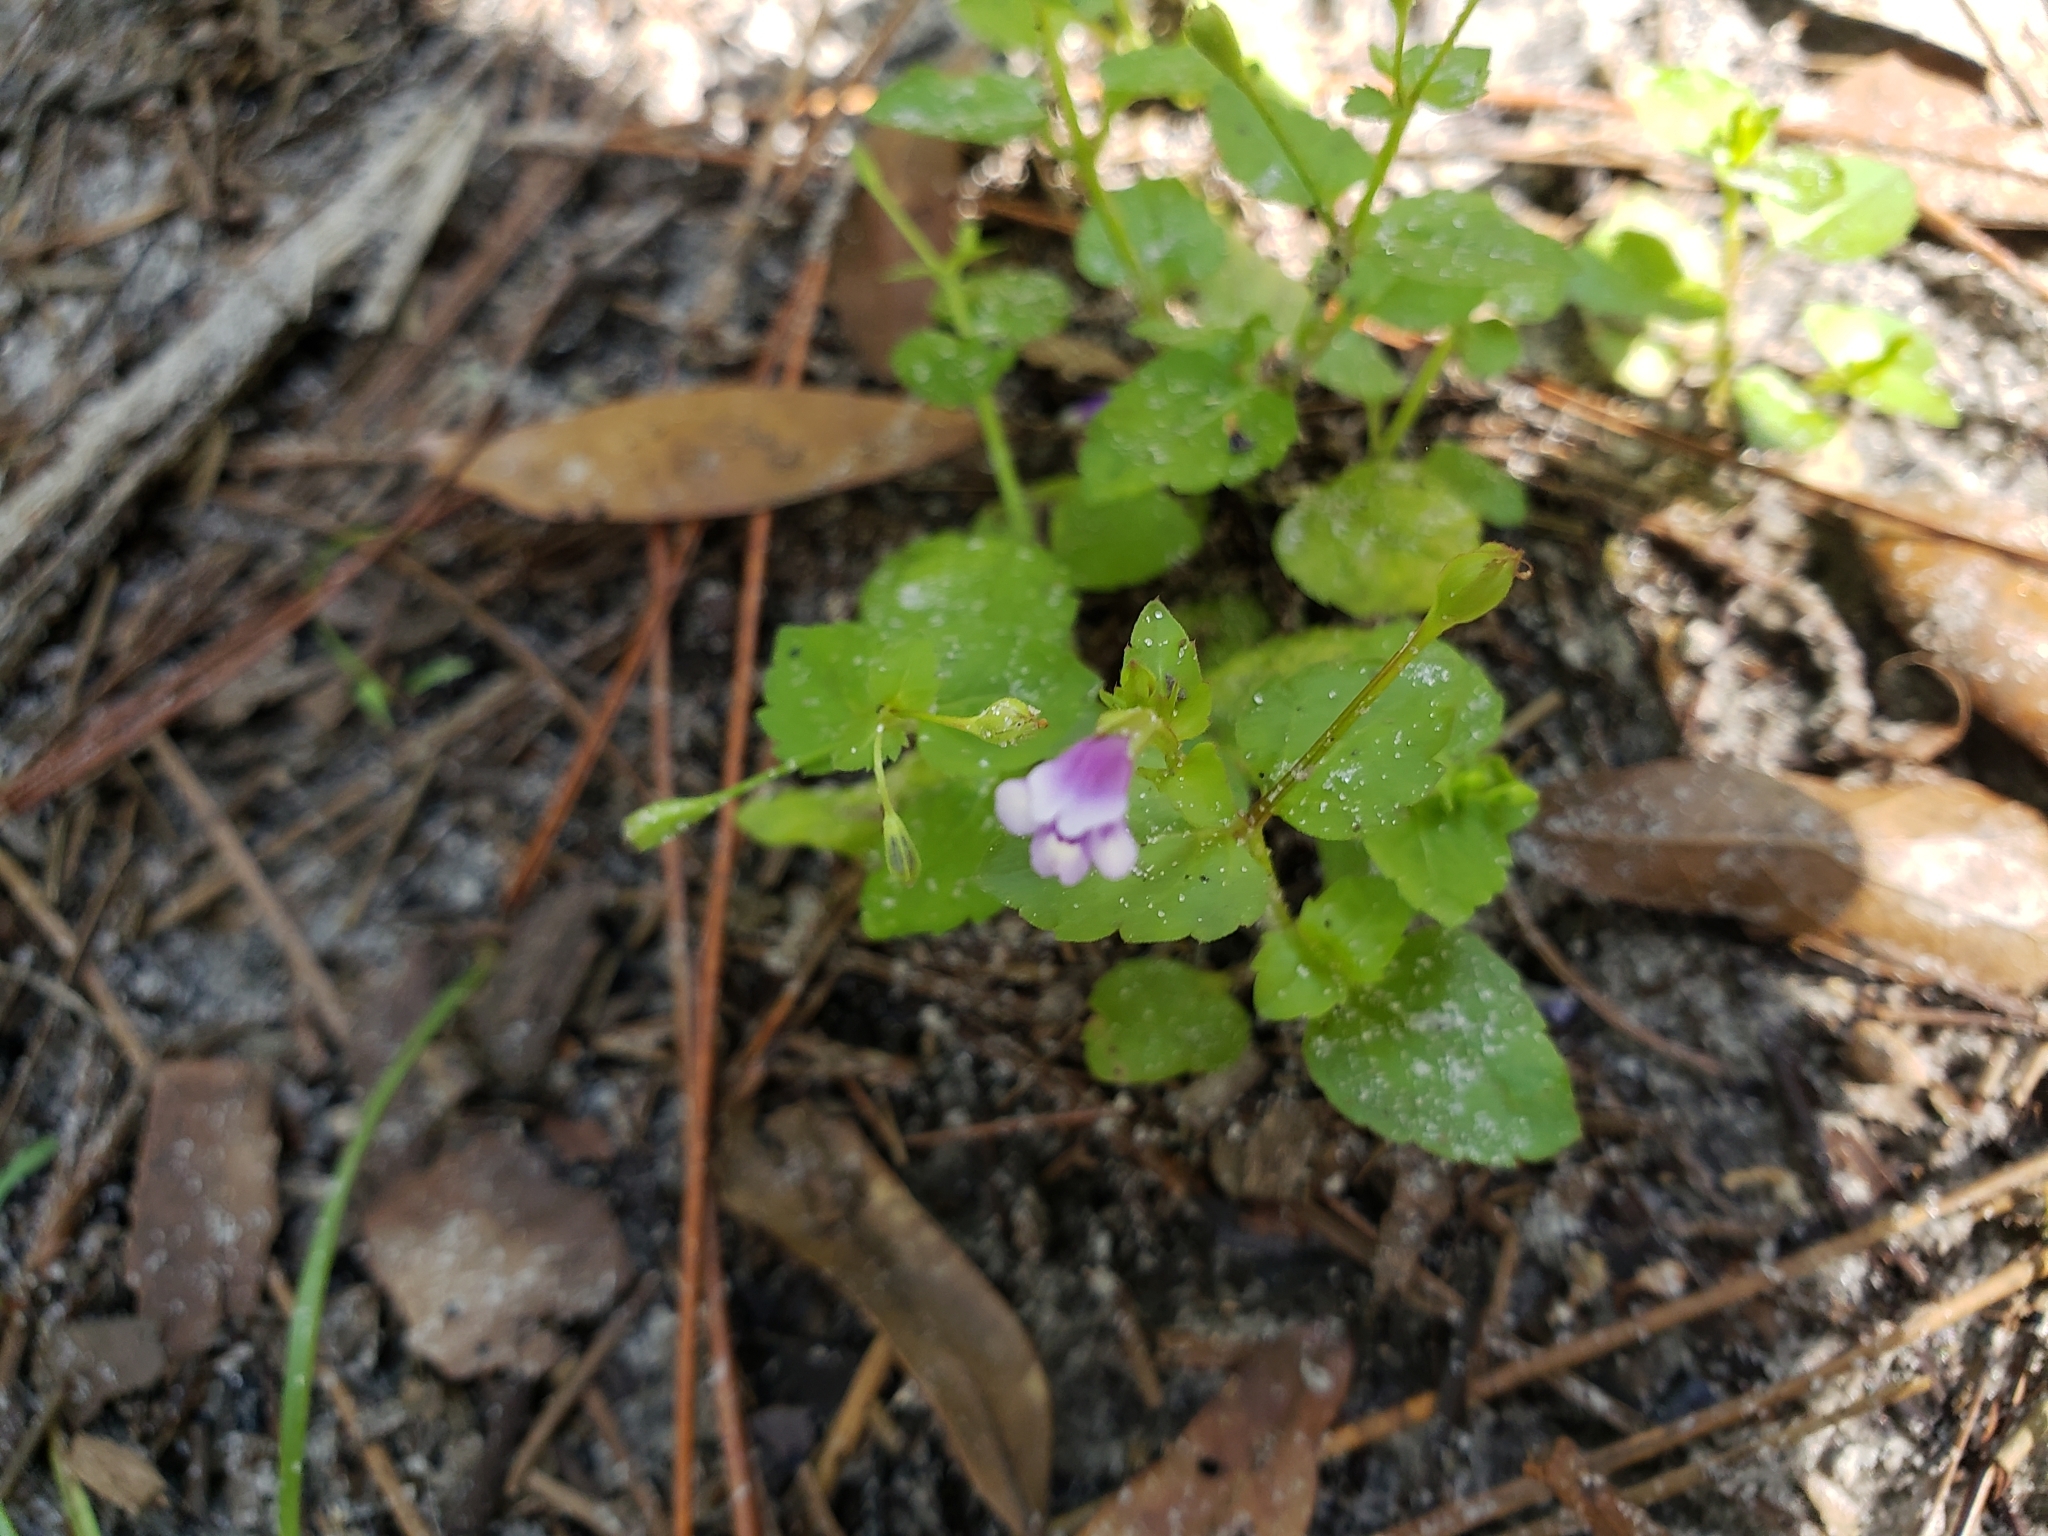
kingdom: Plantae
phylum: Tracheophyta
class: Magnoliopsida
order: Lamiales
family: Linderniaceae
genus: Torenia
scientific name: Torenia crustacea
